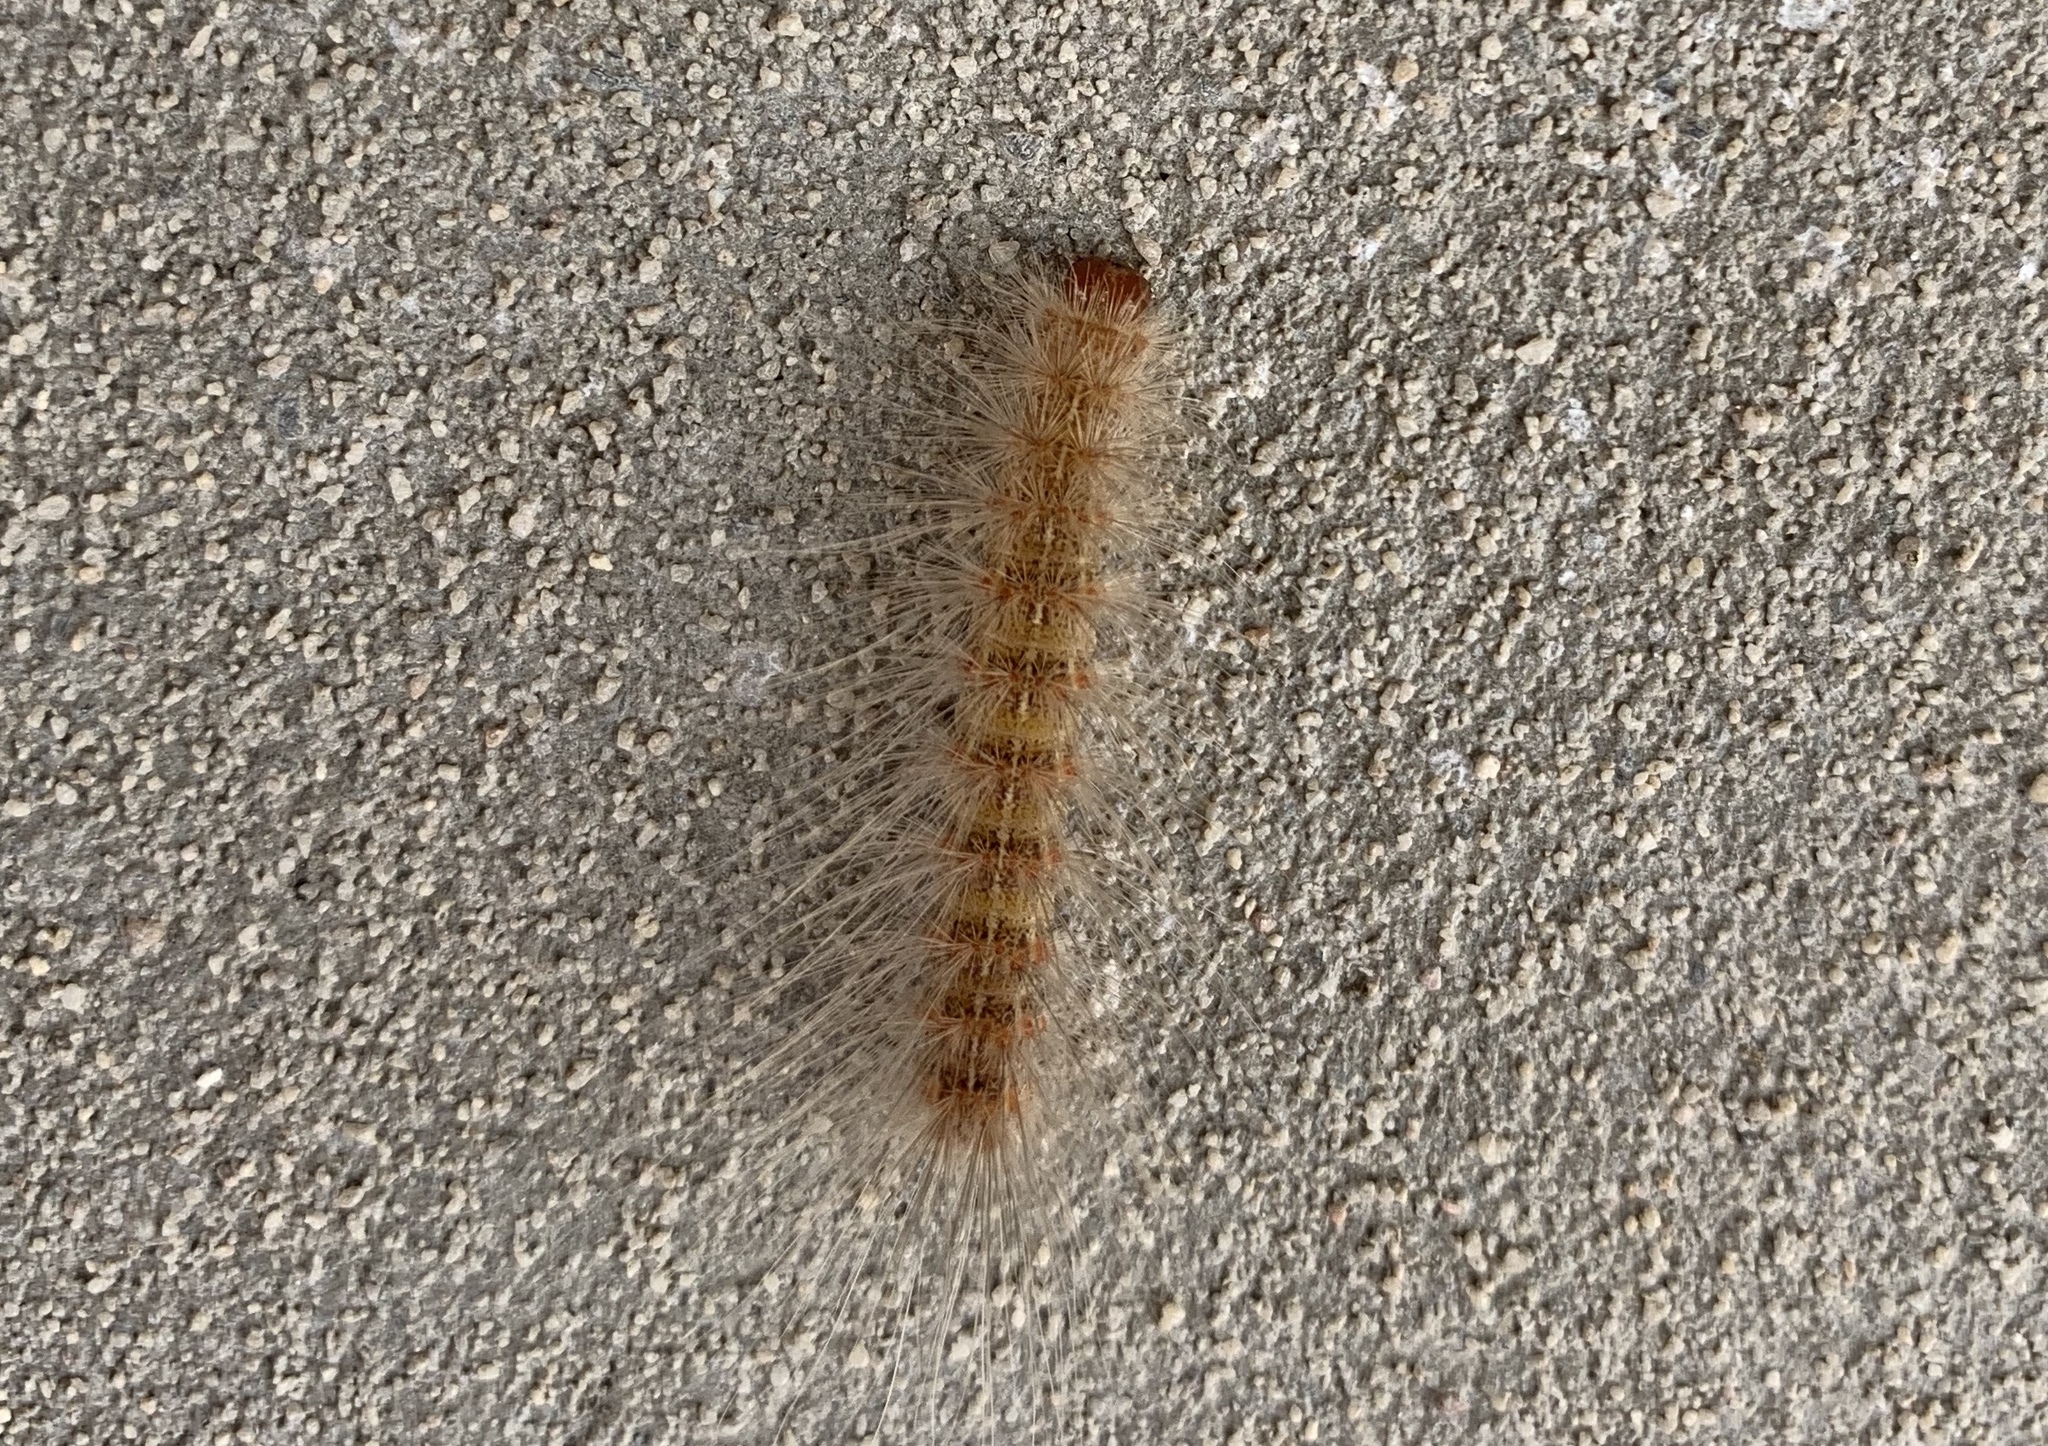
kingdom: Animalia
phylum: Arthropoda
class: Insecta
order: Lepidoptera
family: Erebidae
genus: Hyphantria
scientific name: Hyphantria cunea
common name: American white moth
